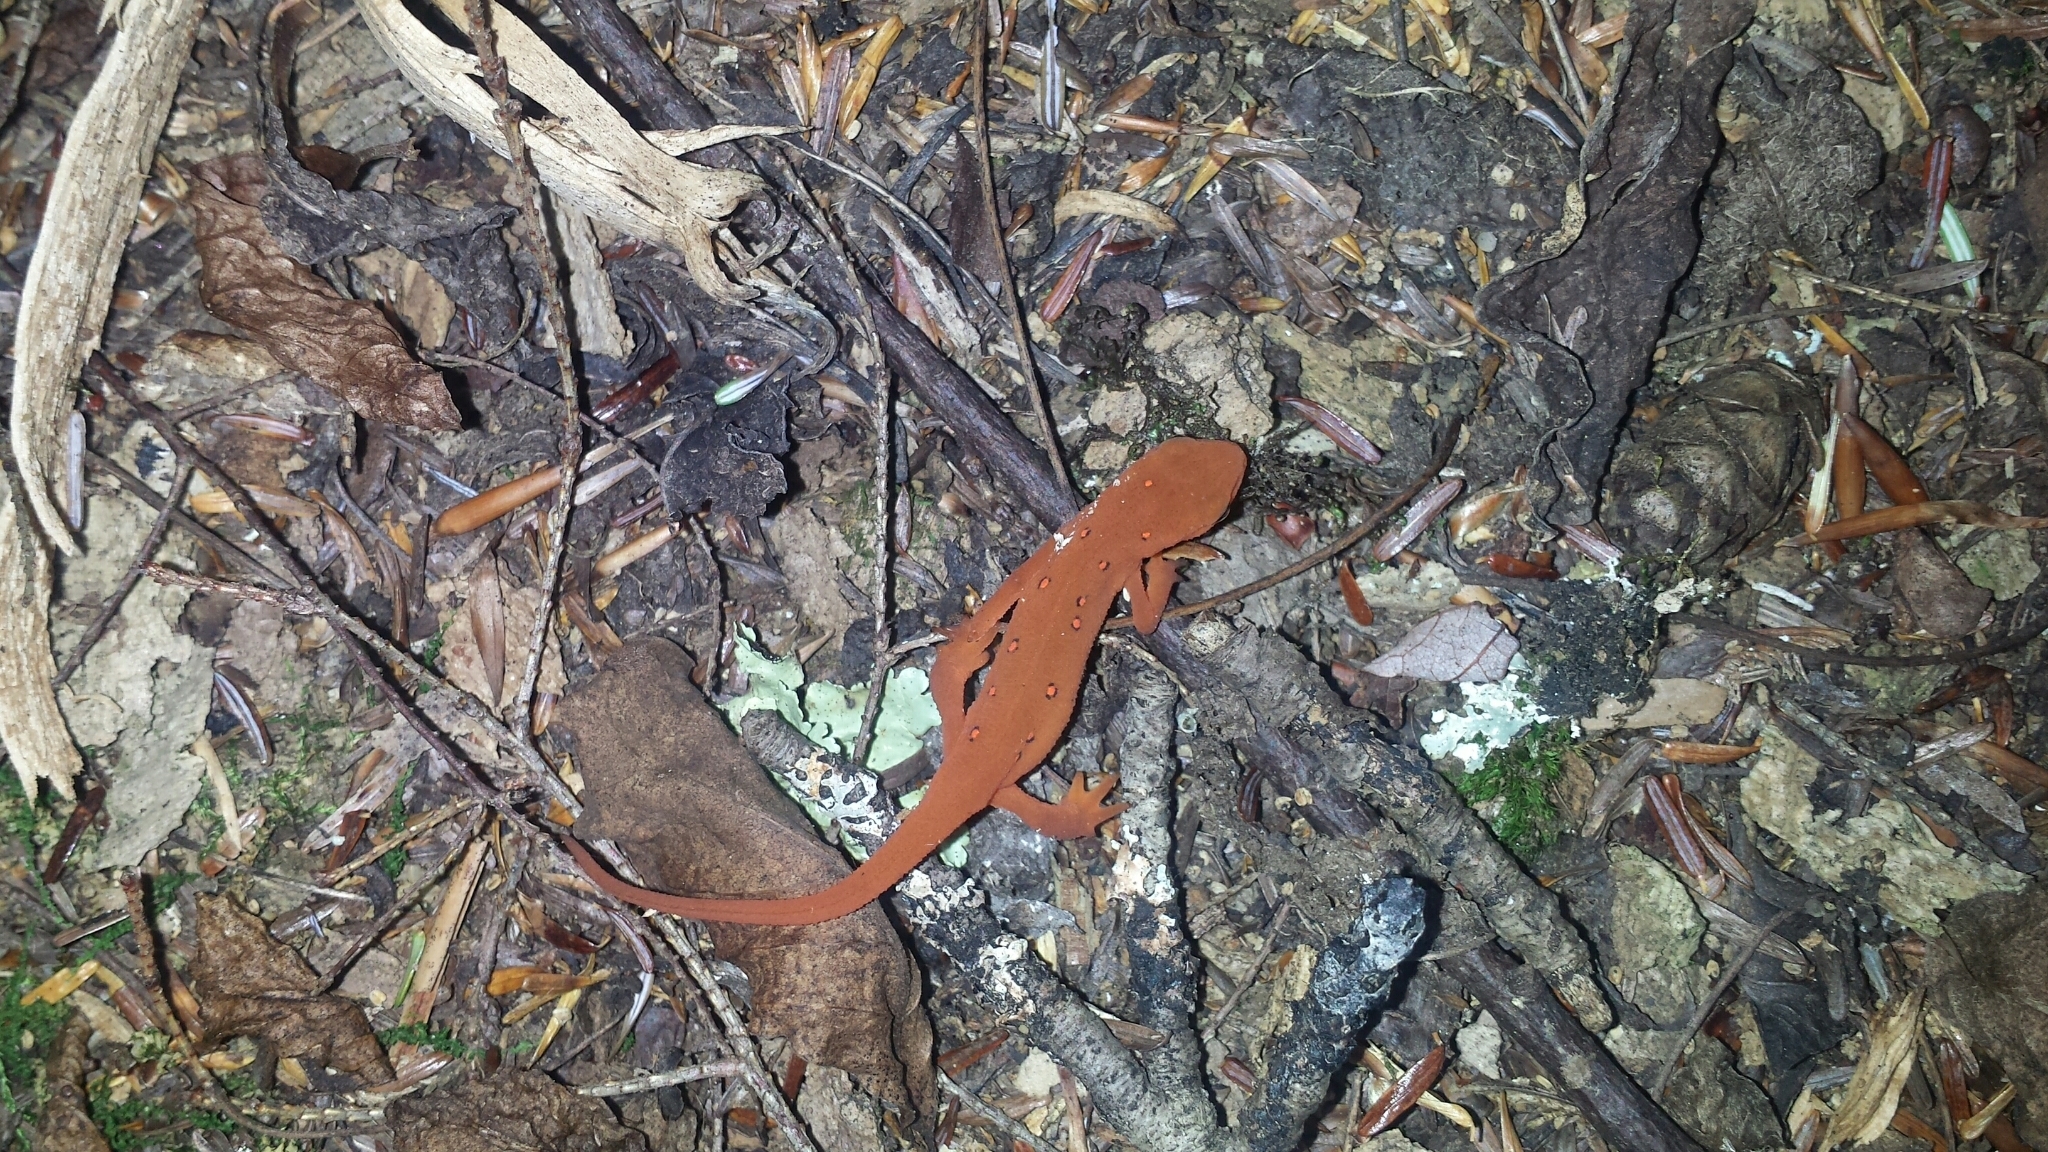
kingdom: Animalia
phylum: Chordata
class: Amphibia
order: Caudata
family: Salamandridae
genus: Notophthalmus
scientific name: Notophthalmus viridescens
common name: Eastern newt
